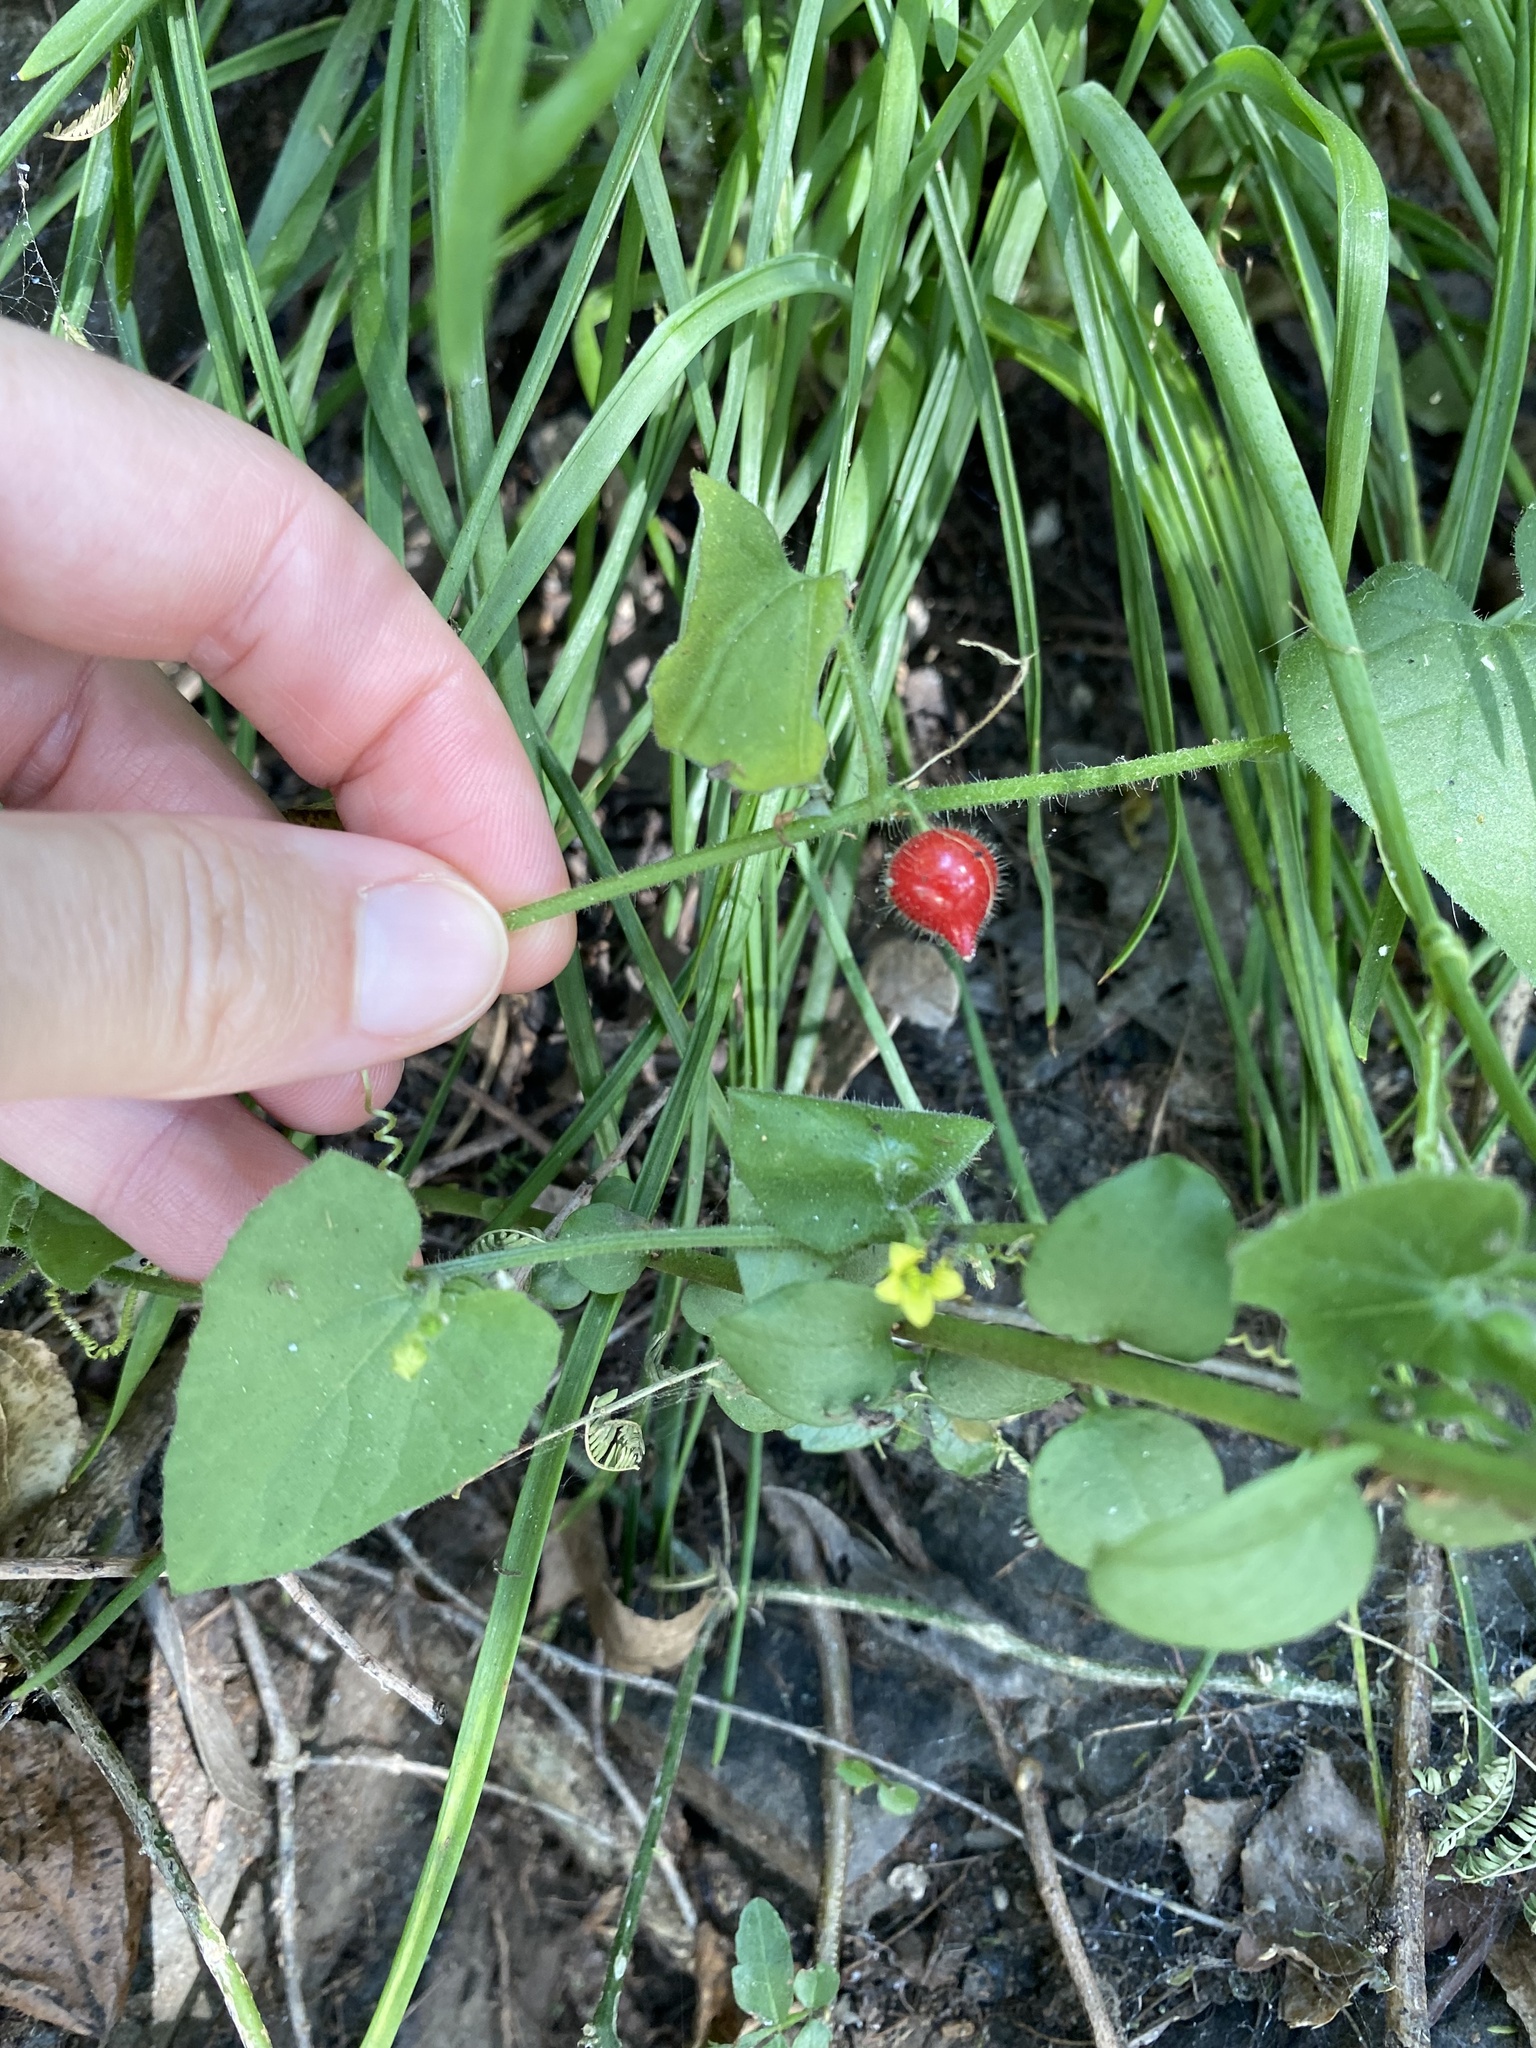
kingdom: Plantae
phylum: Tracheophyta
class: Magnoliopsida
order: Cucurbitales
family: Cucurbitaceae
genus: Kedrostis
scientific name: Kedrostis foetidissima
